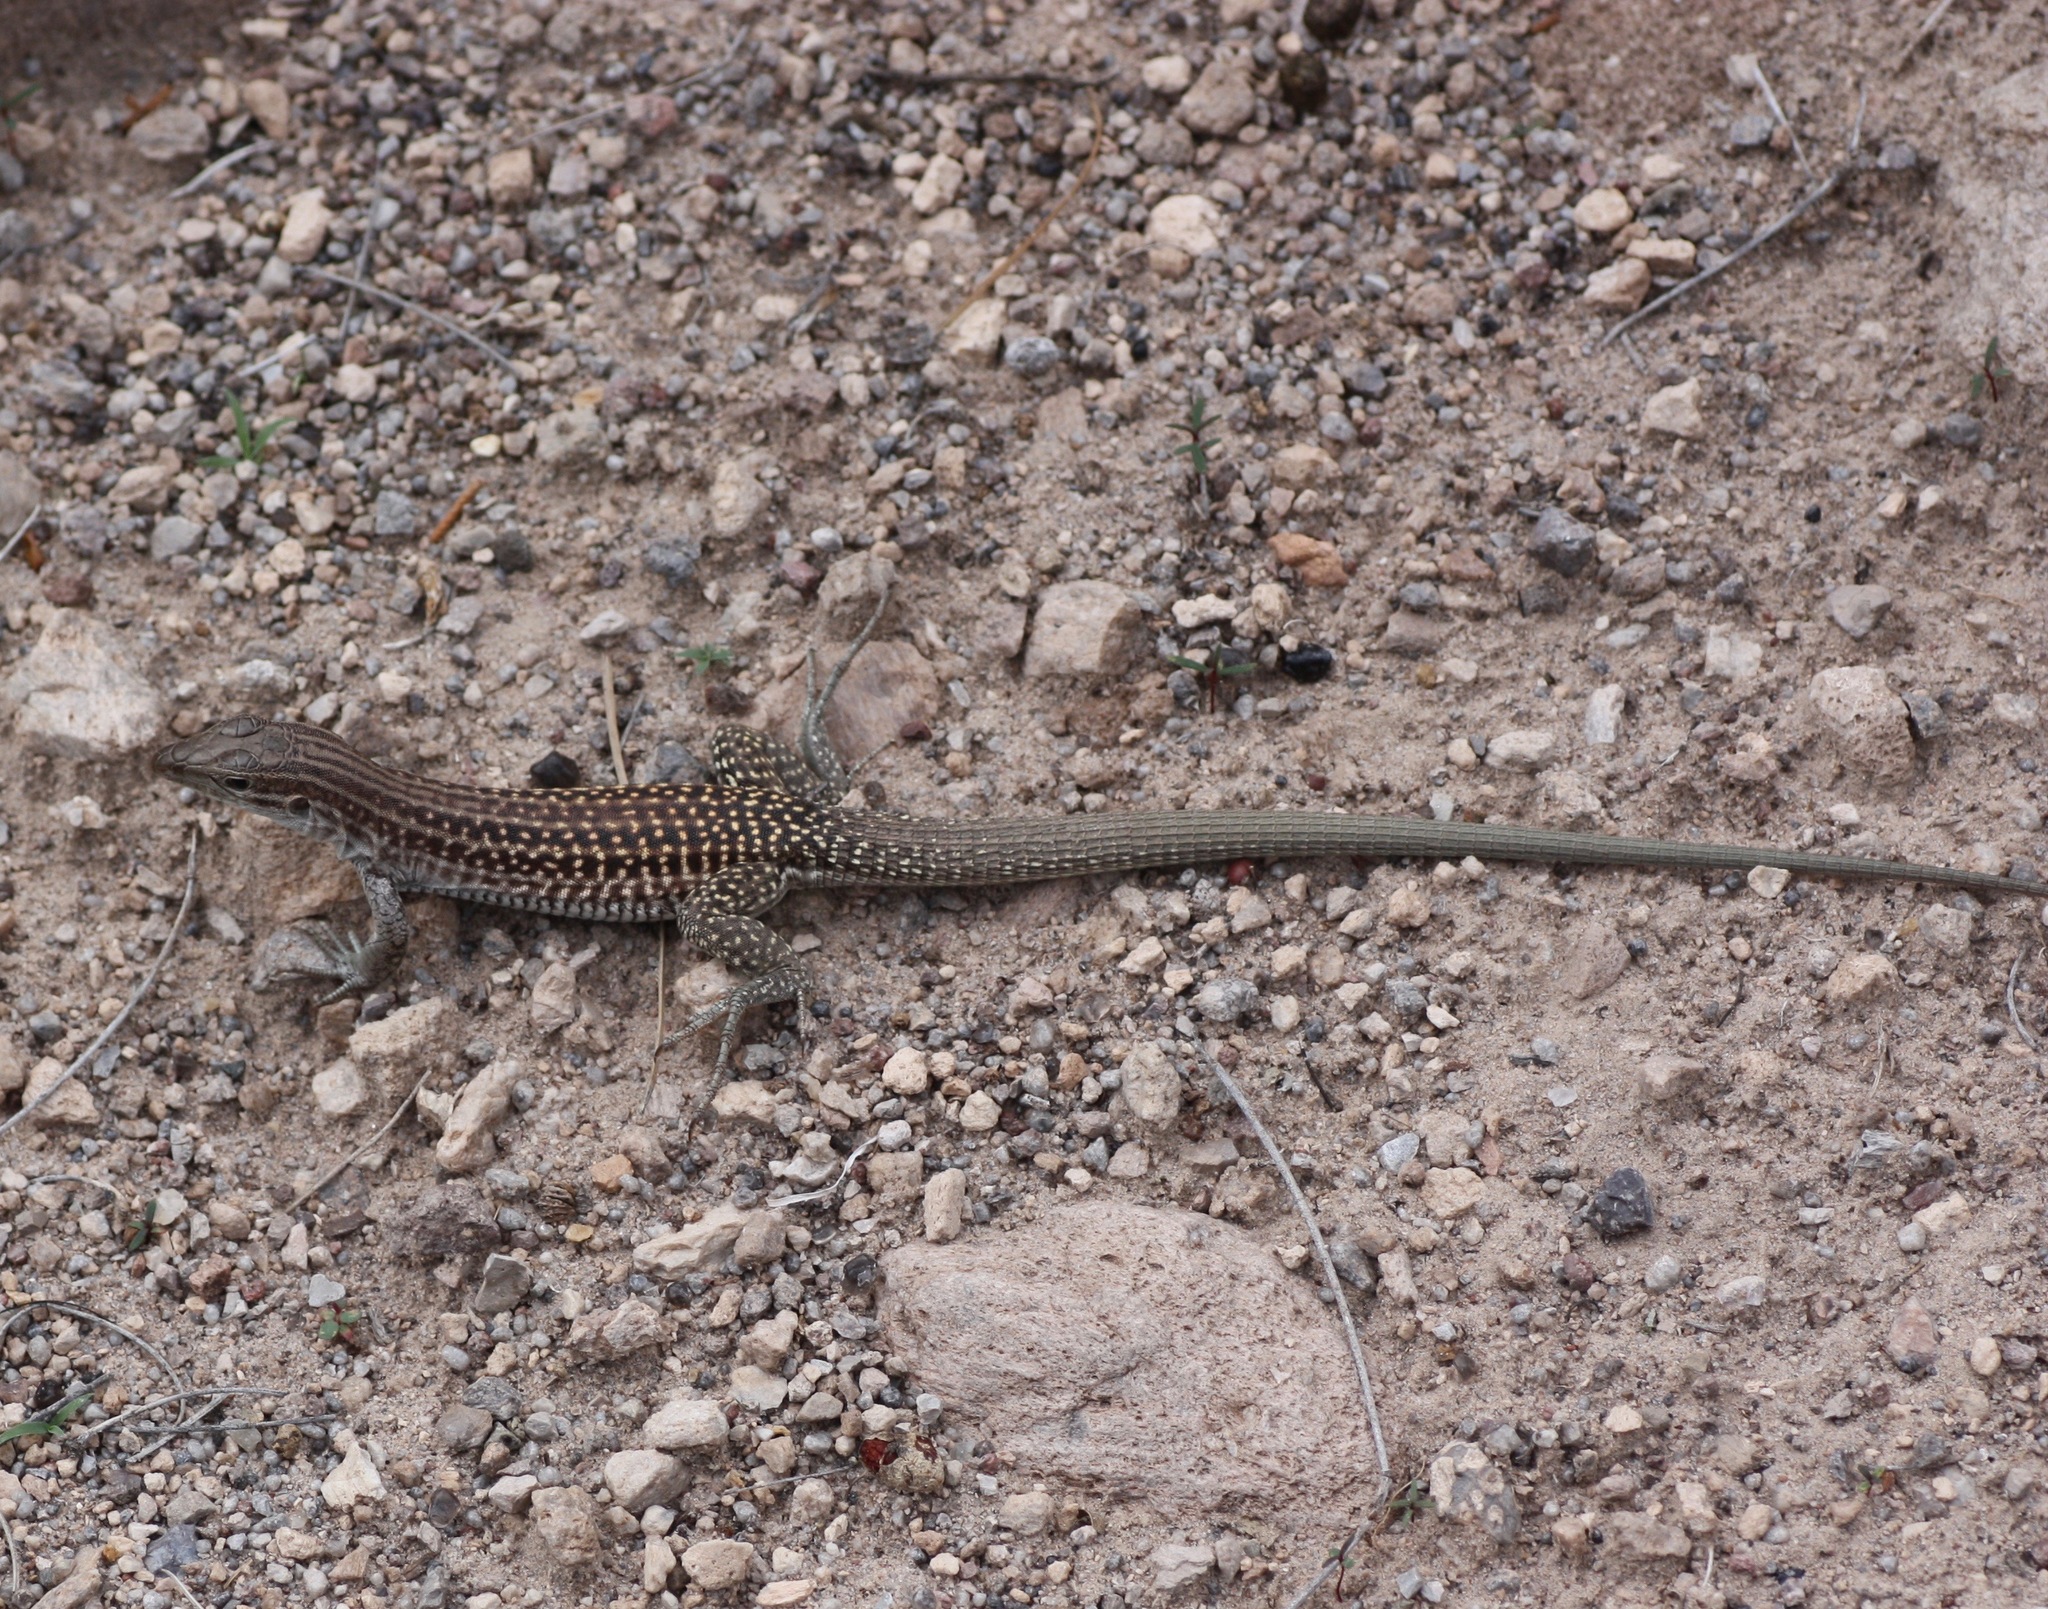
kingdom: Animalia
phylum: Chordata
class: Squamata
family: Teiidae
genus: Aspidoscelis
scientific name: Aspidoscelis exsanguis
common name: Chihuahuan spotted whiptail
